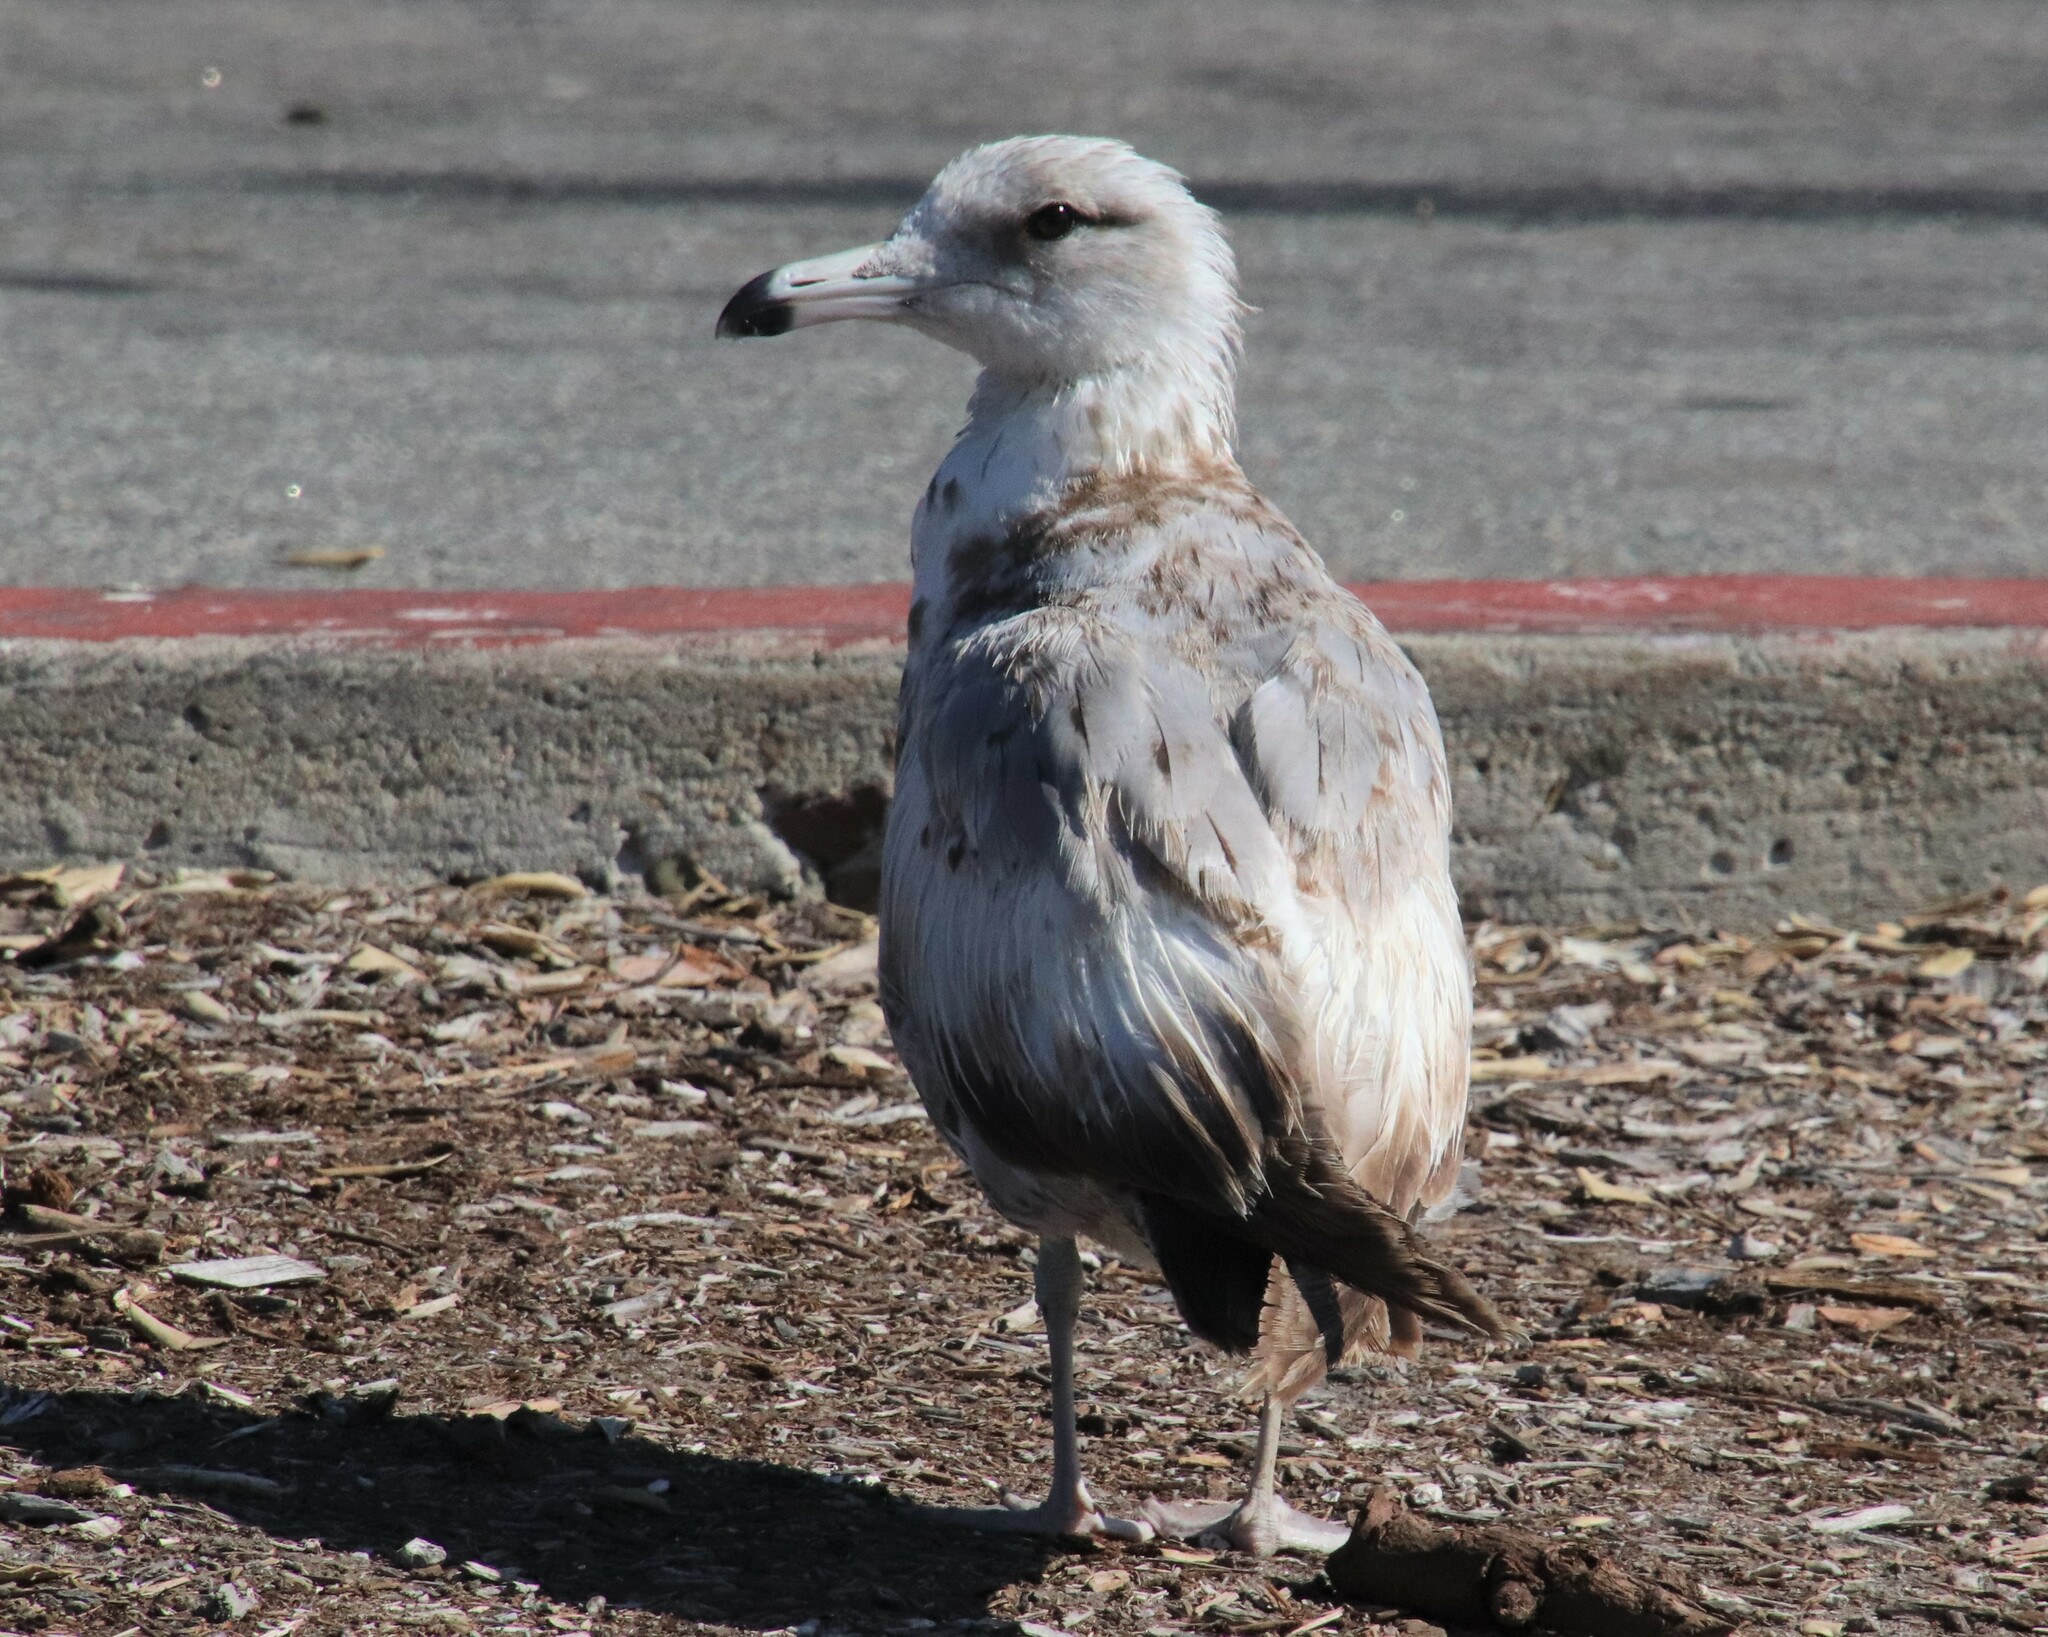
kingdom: Animalia
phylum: Chordata
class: Aves
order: Charadriiformes
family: Laridae
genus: Larus
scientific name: Larus californicus
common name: California gull
